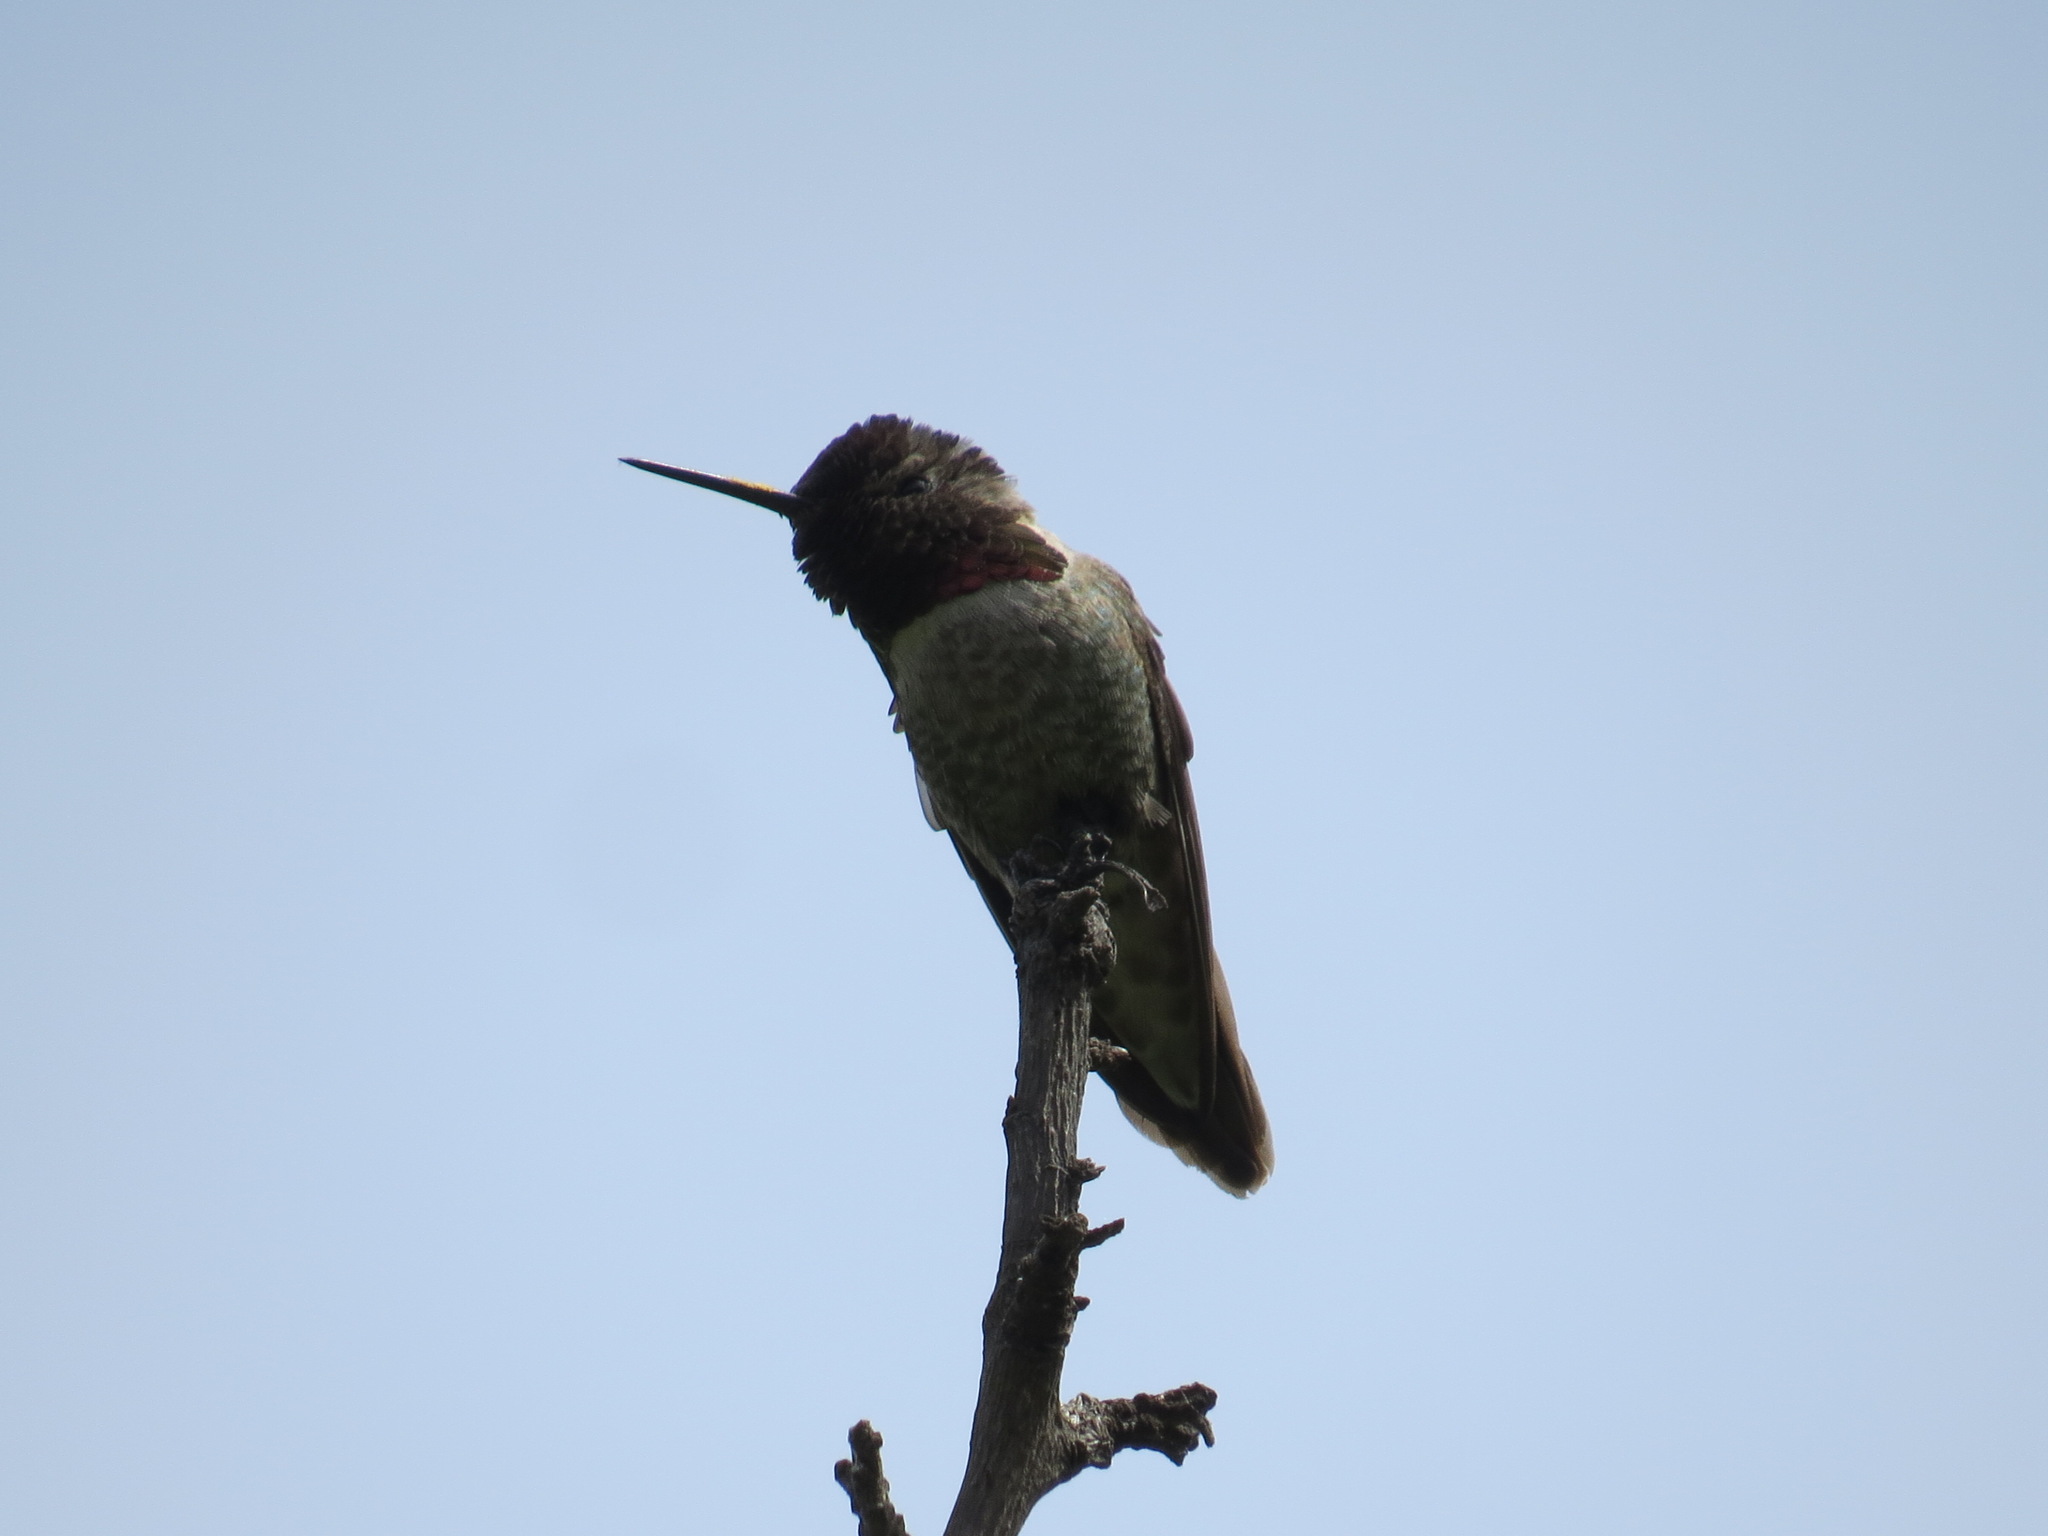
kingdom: Animalia
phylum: Chordata
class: Aves
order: Apodiformes
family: Trochilidae
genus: Calypte
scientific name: Calypte anna
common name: Anna's hummingbird
